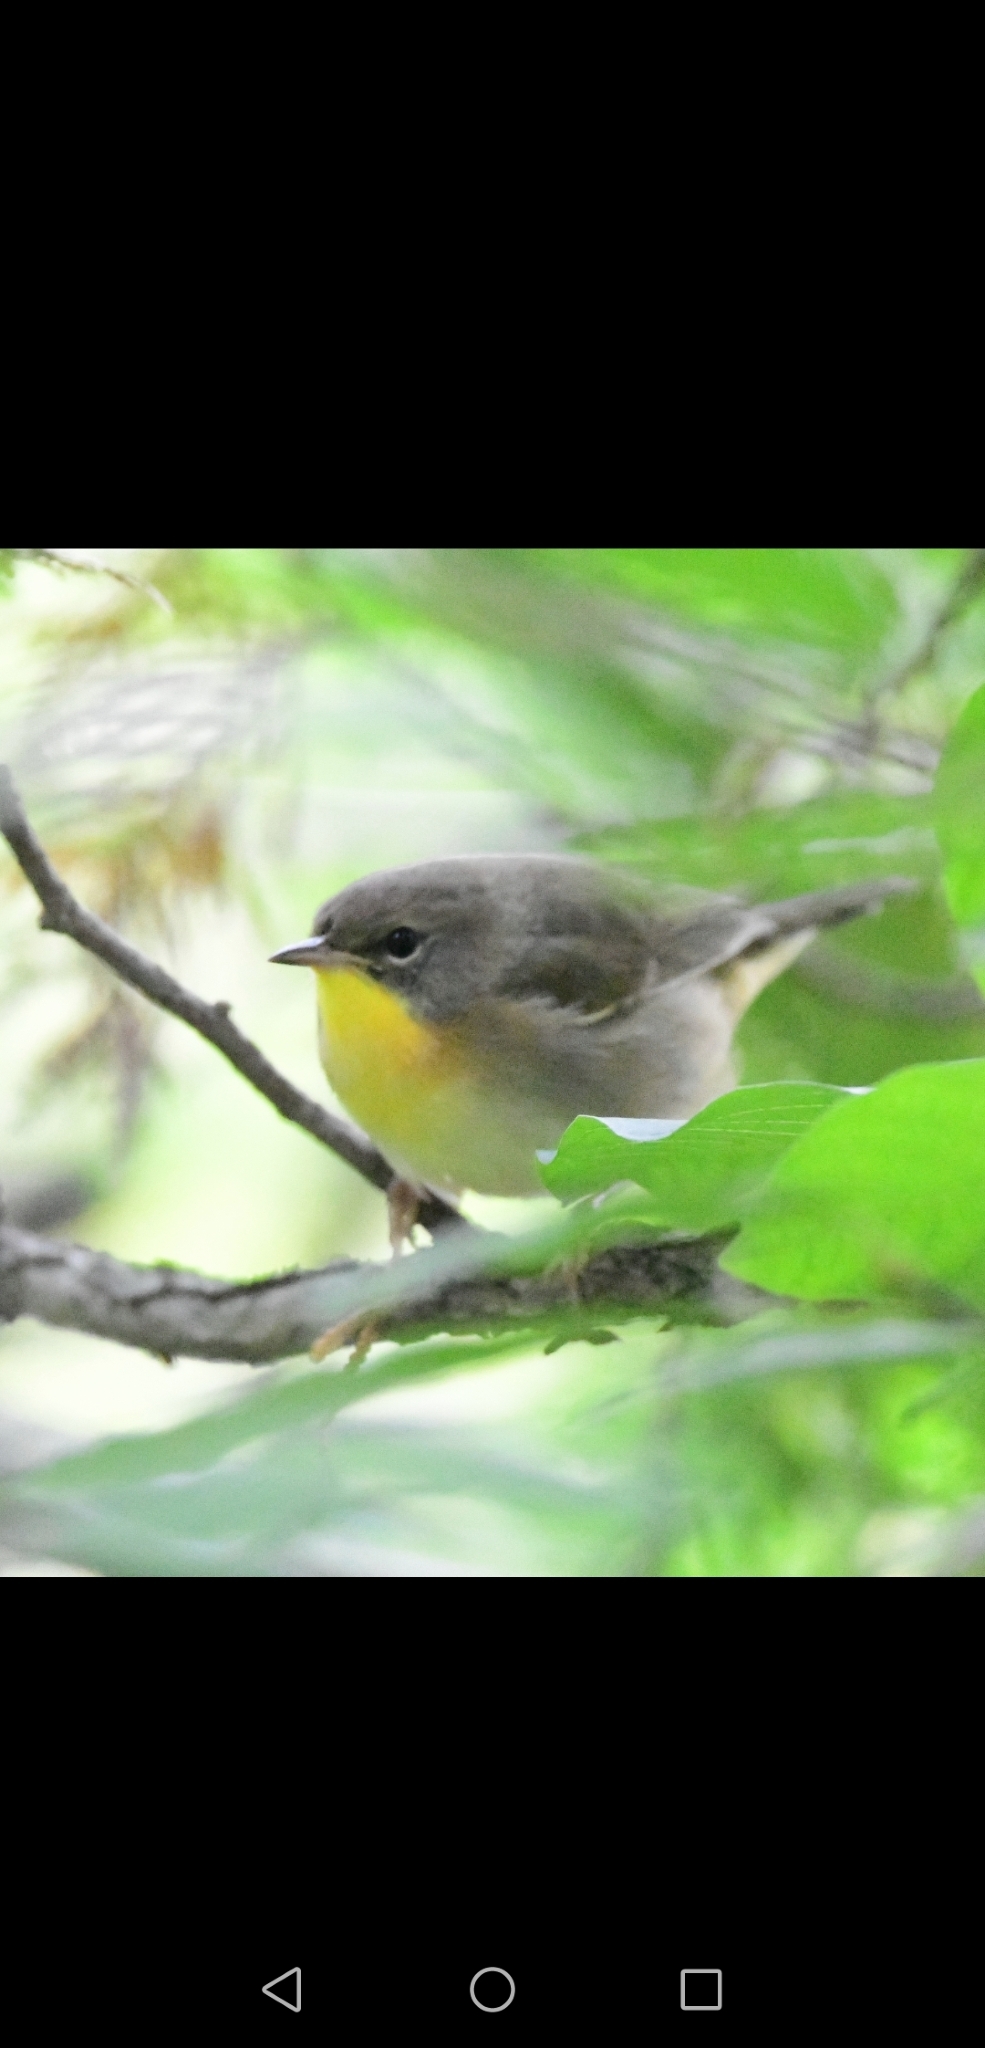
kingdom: Animalia
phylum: Chordata
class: Aves
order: Passeriformes
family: Parulidae
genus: Geothlypis
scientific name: Geothlypis trichas
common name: Common yellowthroat
